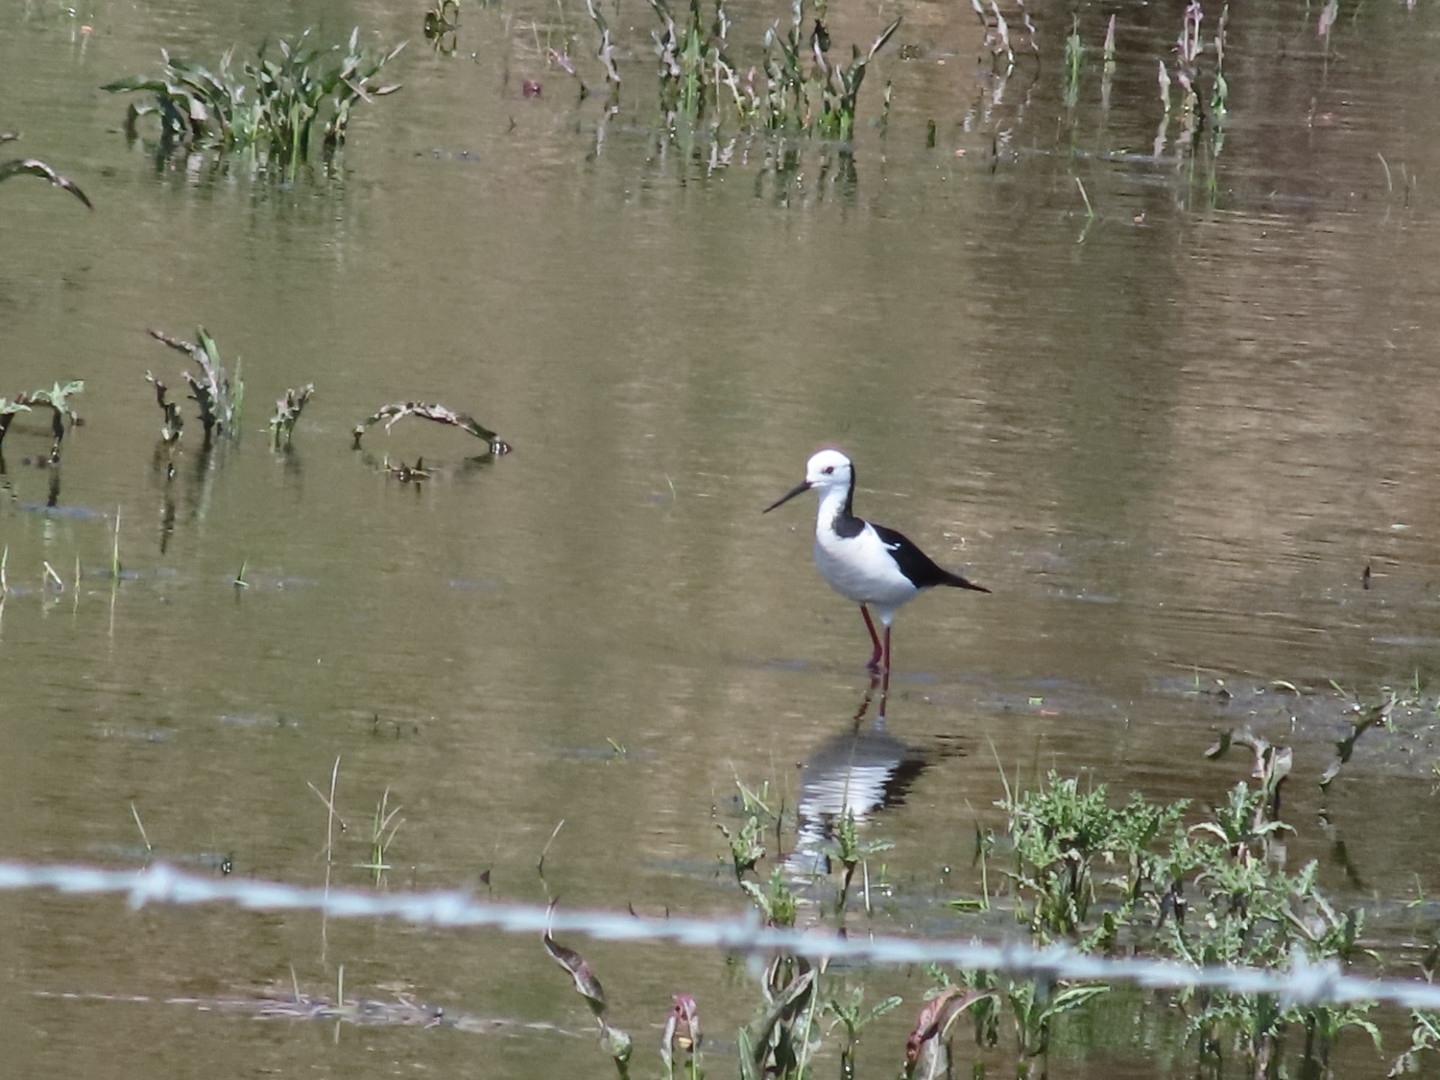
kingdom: Animalia
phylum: Chordata
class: Aves
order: Charadriiformes
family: Recurvirostridae
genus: Himantopus
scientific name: Himantopus leucocephalus
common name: White-headed stilt
